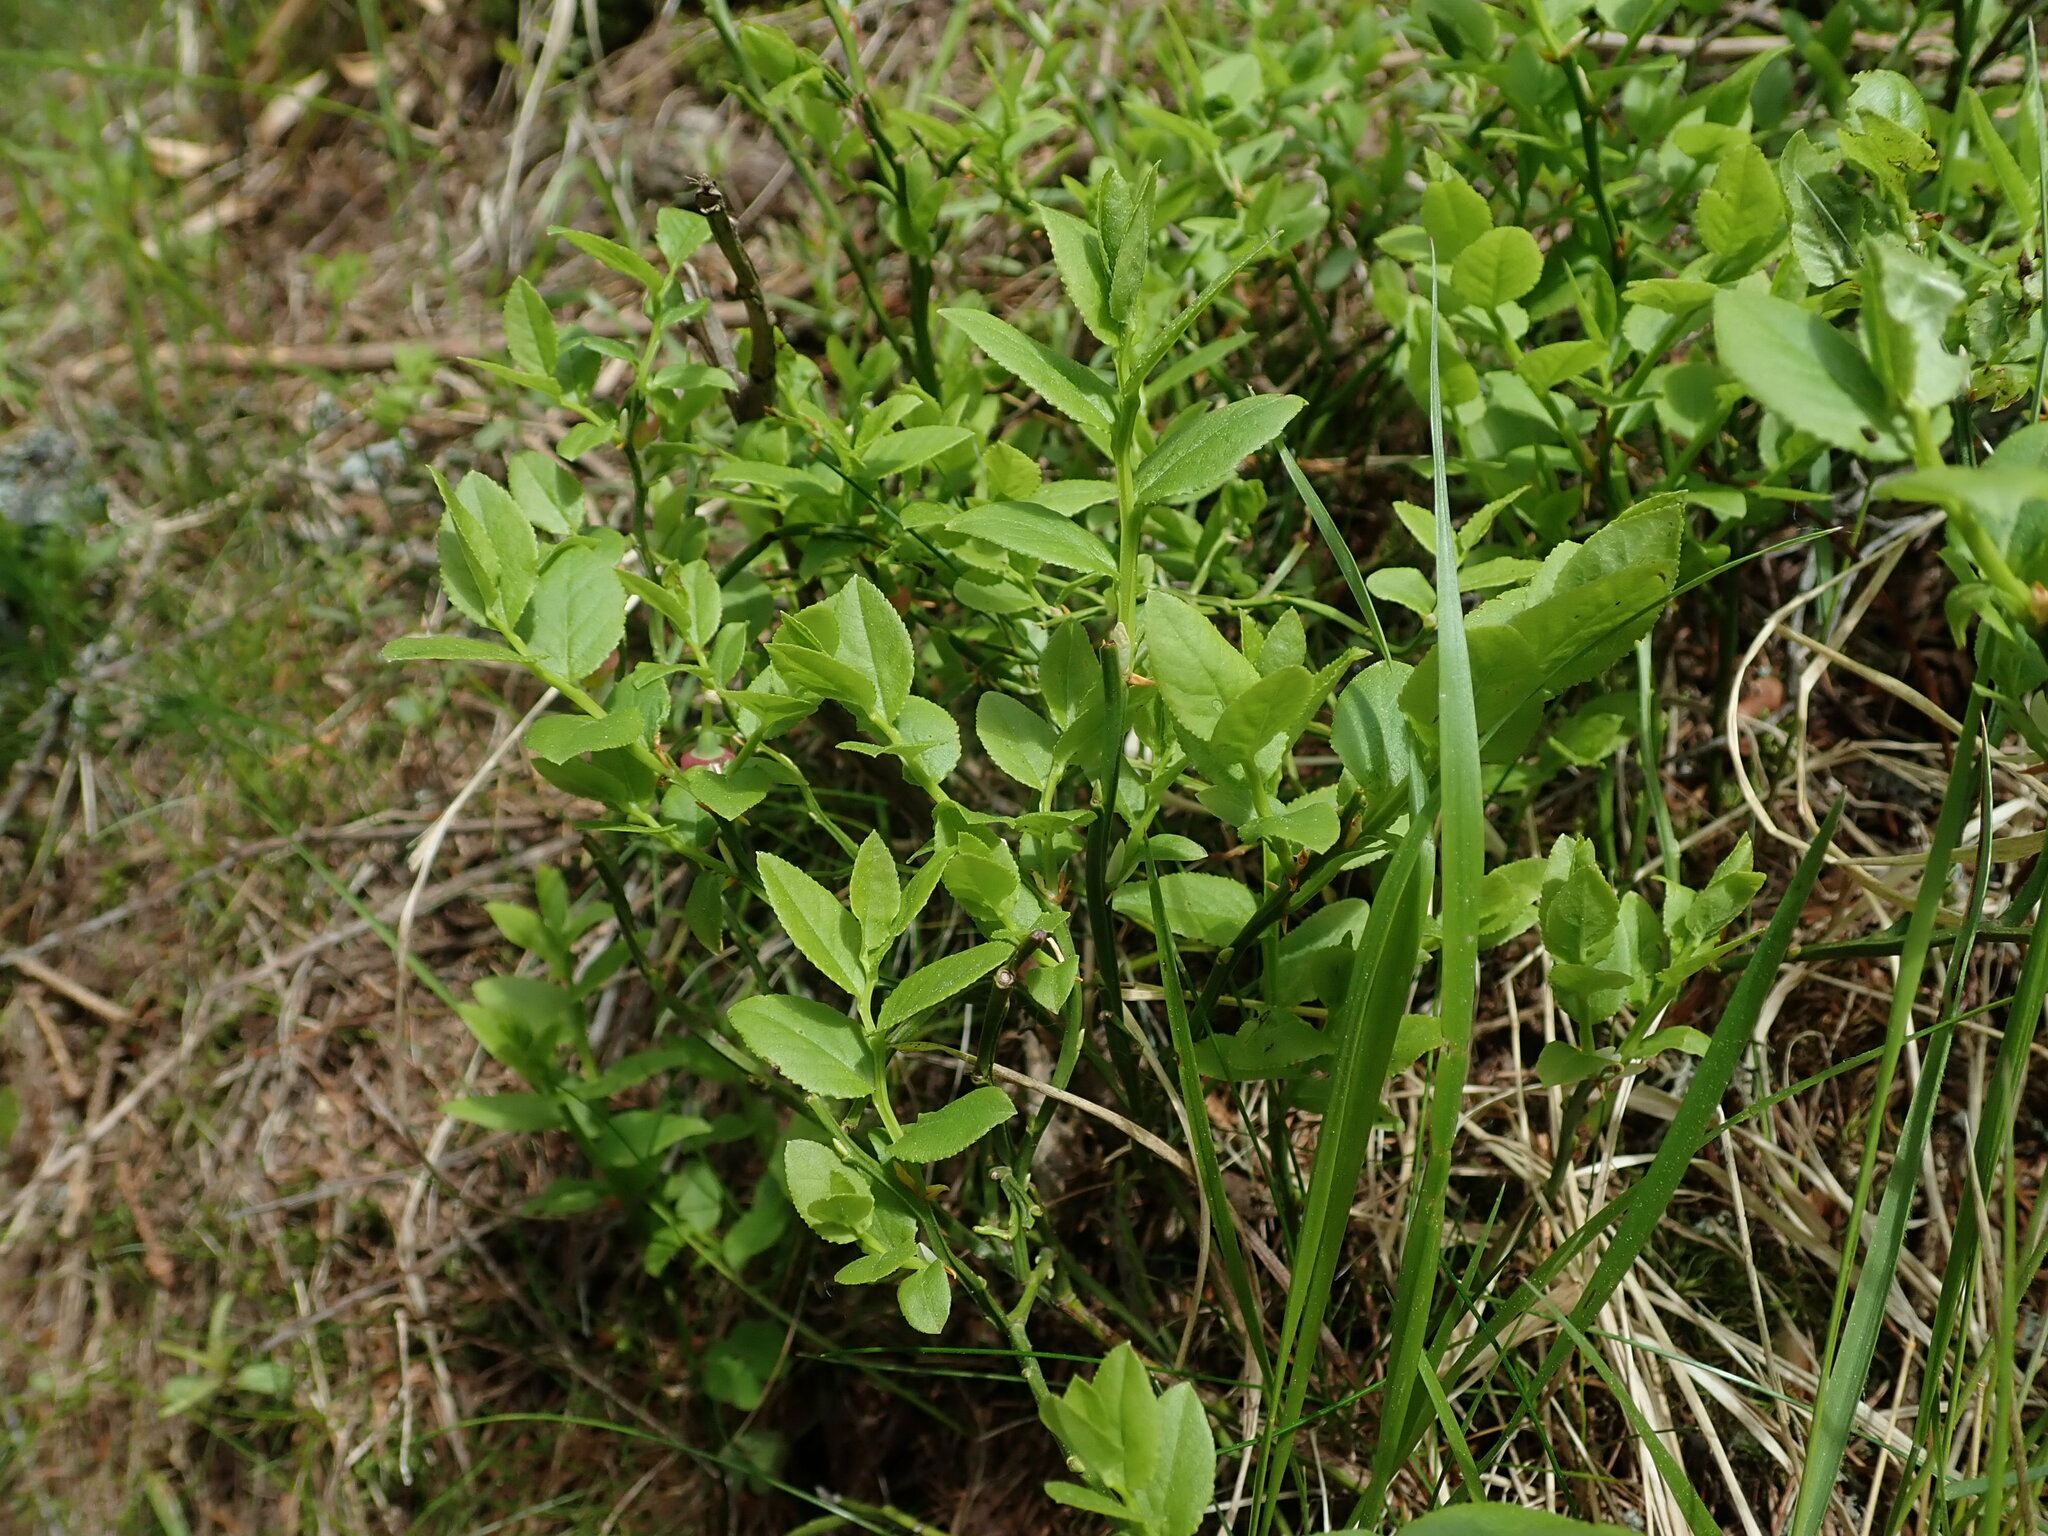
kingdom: Plantae
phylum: Tracheophyta
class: Magnoliopsida
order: Ericales
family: Ericaceae
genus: Vaccinium
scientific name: Vaccinium myrtillus
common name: Bilberry
